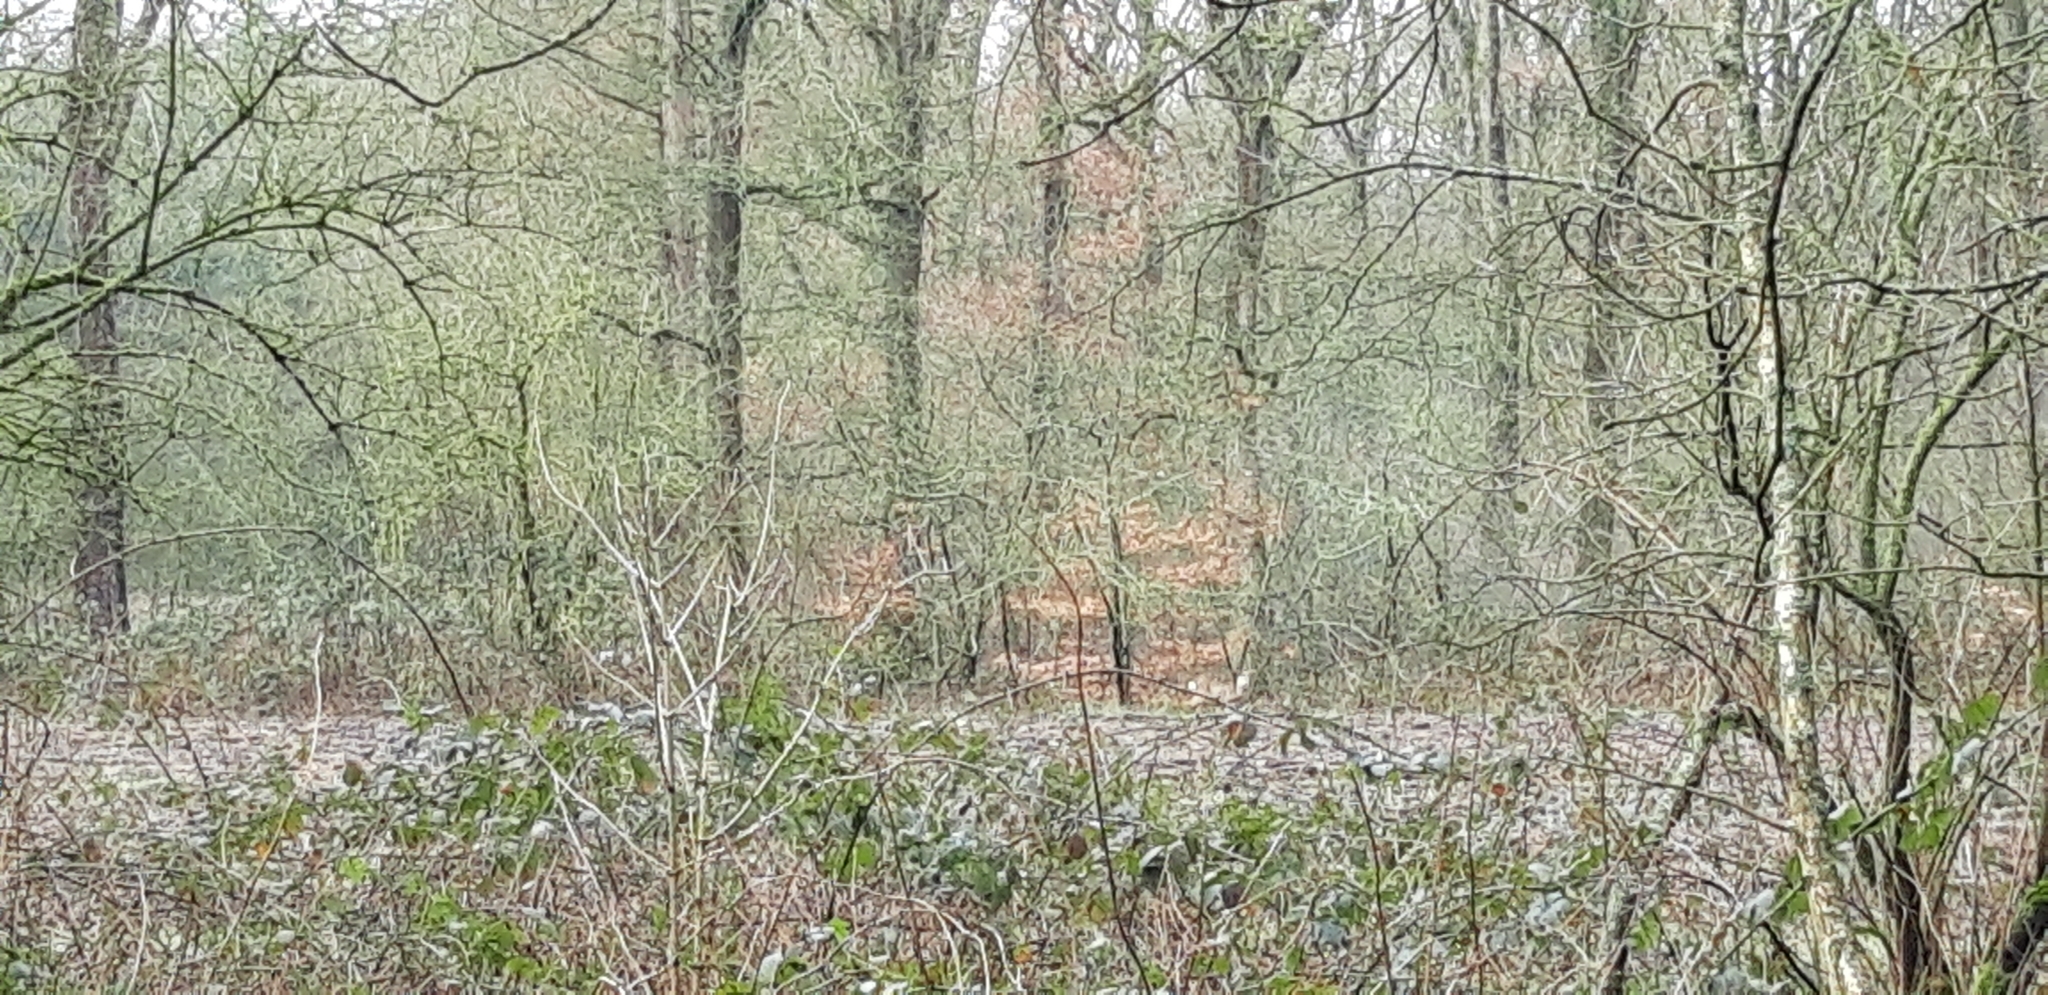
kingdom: Animalia
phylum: Chordata
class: Mammalia
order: Artiodactyla
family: Cervidae
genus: Capreolus
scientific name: Capreolus capreolus
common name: Western roe deer
